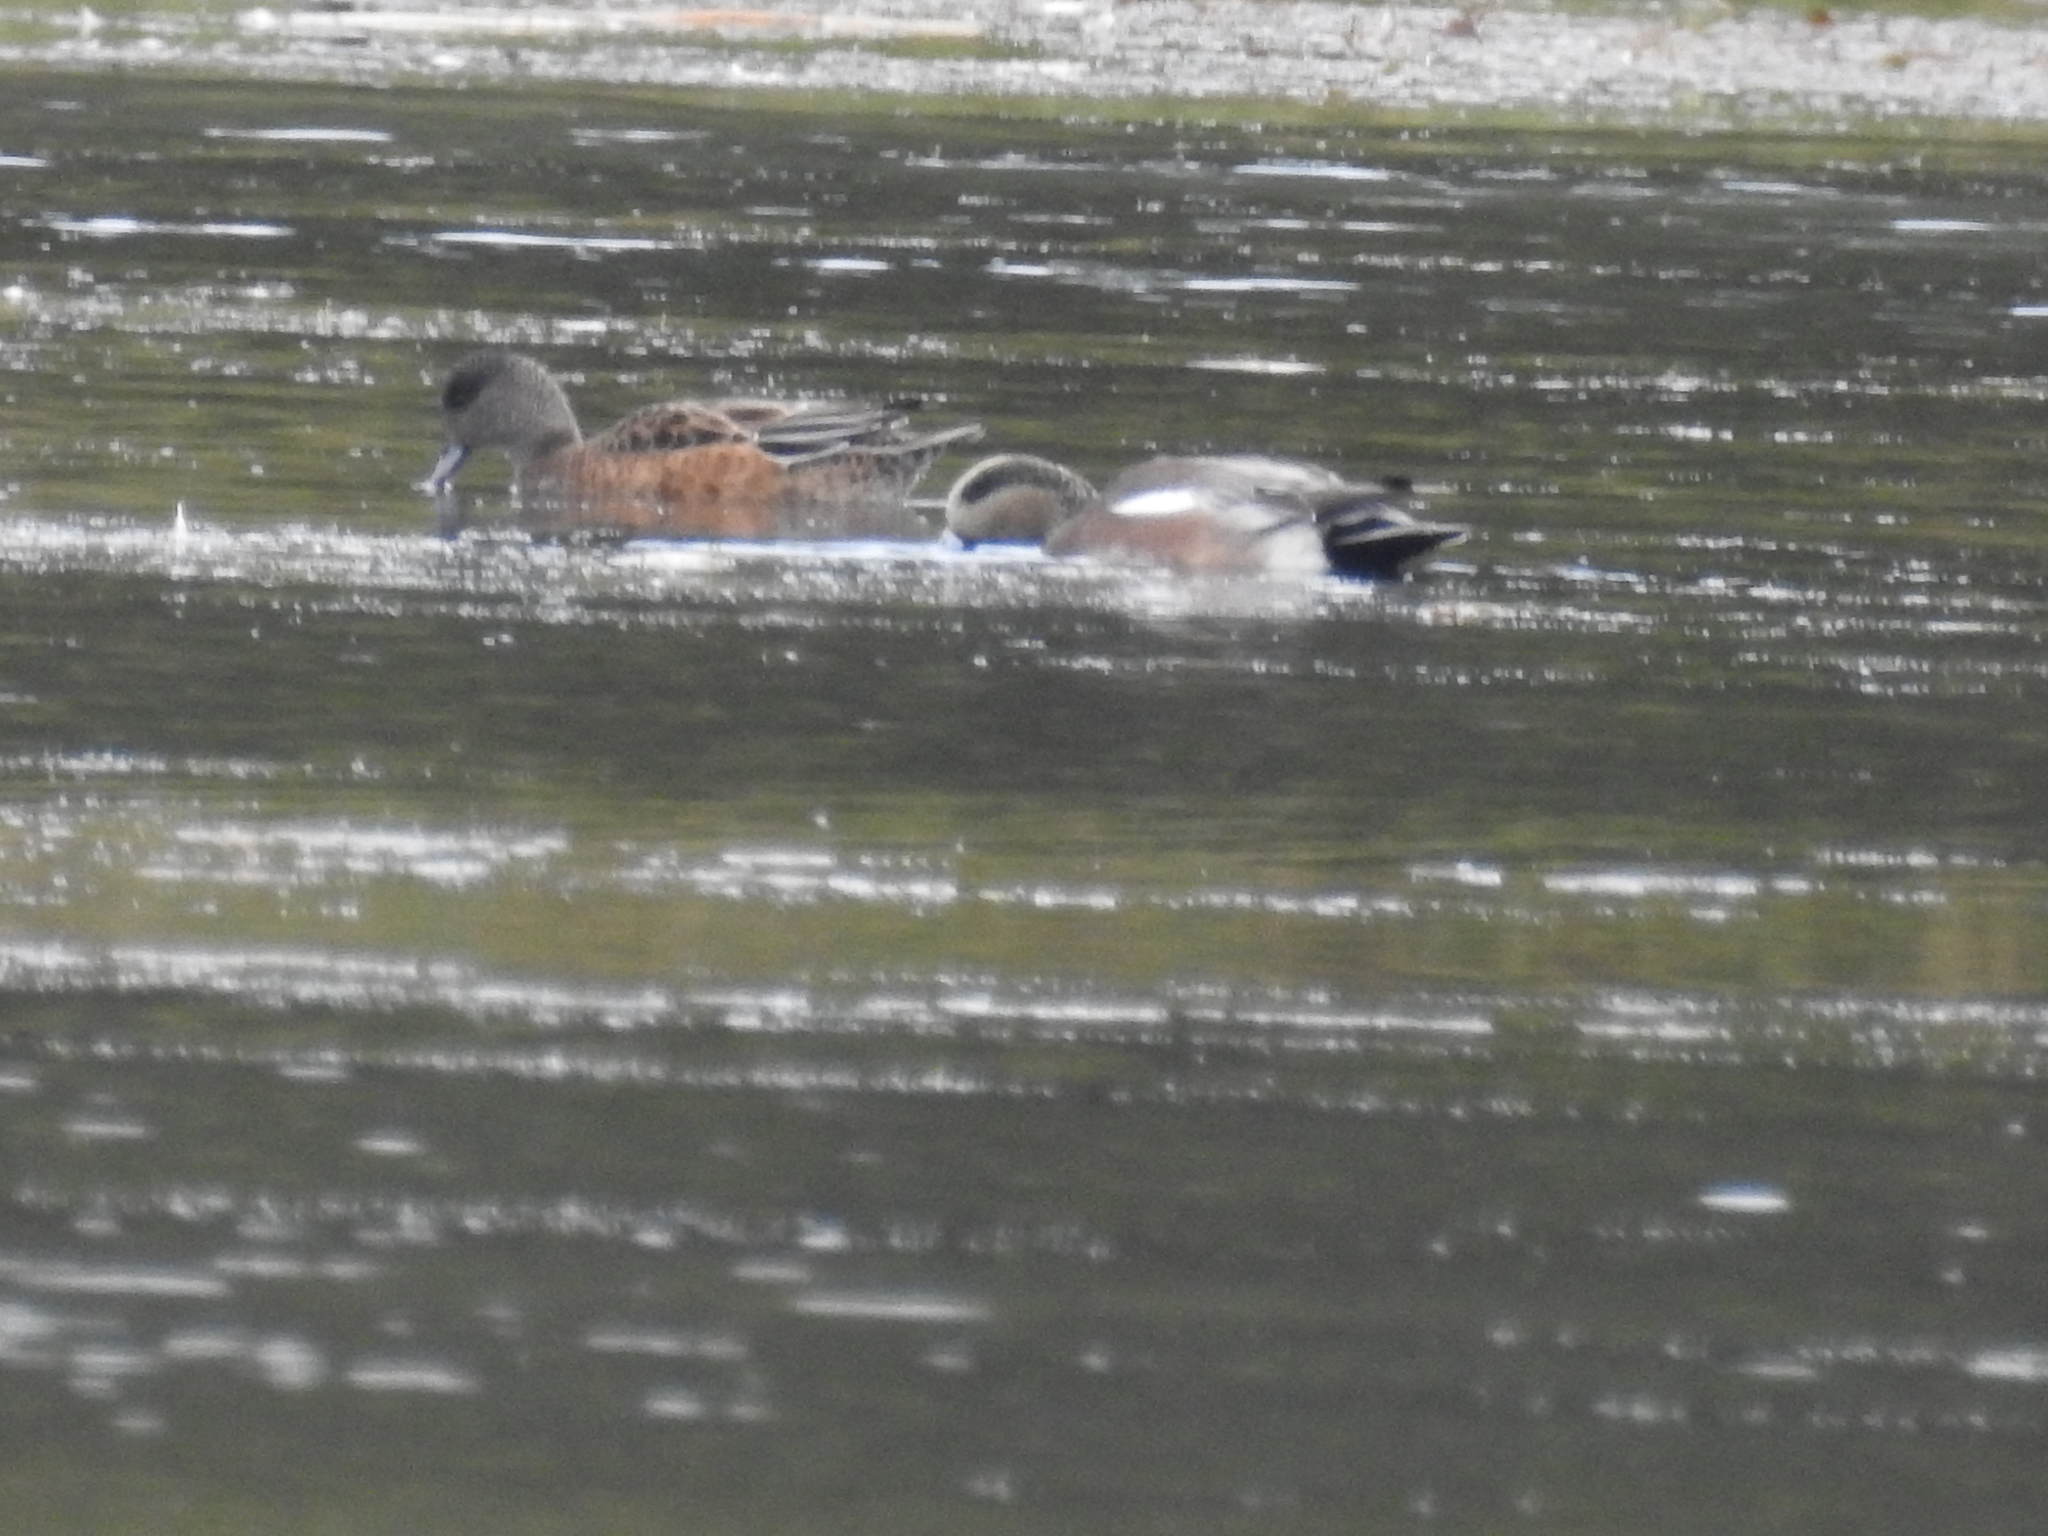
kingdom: Animalia
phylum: Chordata
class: Aves
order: Anseriformes
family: Anatidae
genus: Mareca
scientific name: Mareca americana
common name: American wigeon
